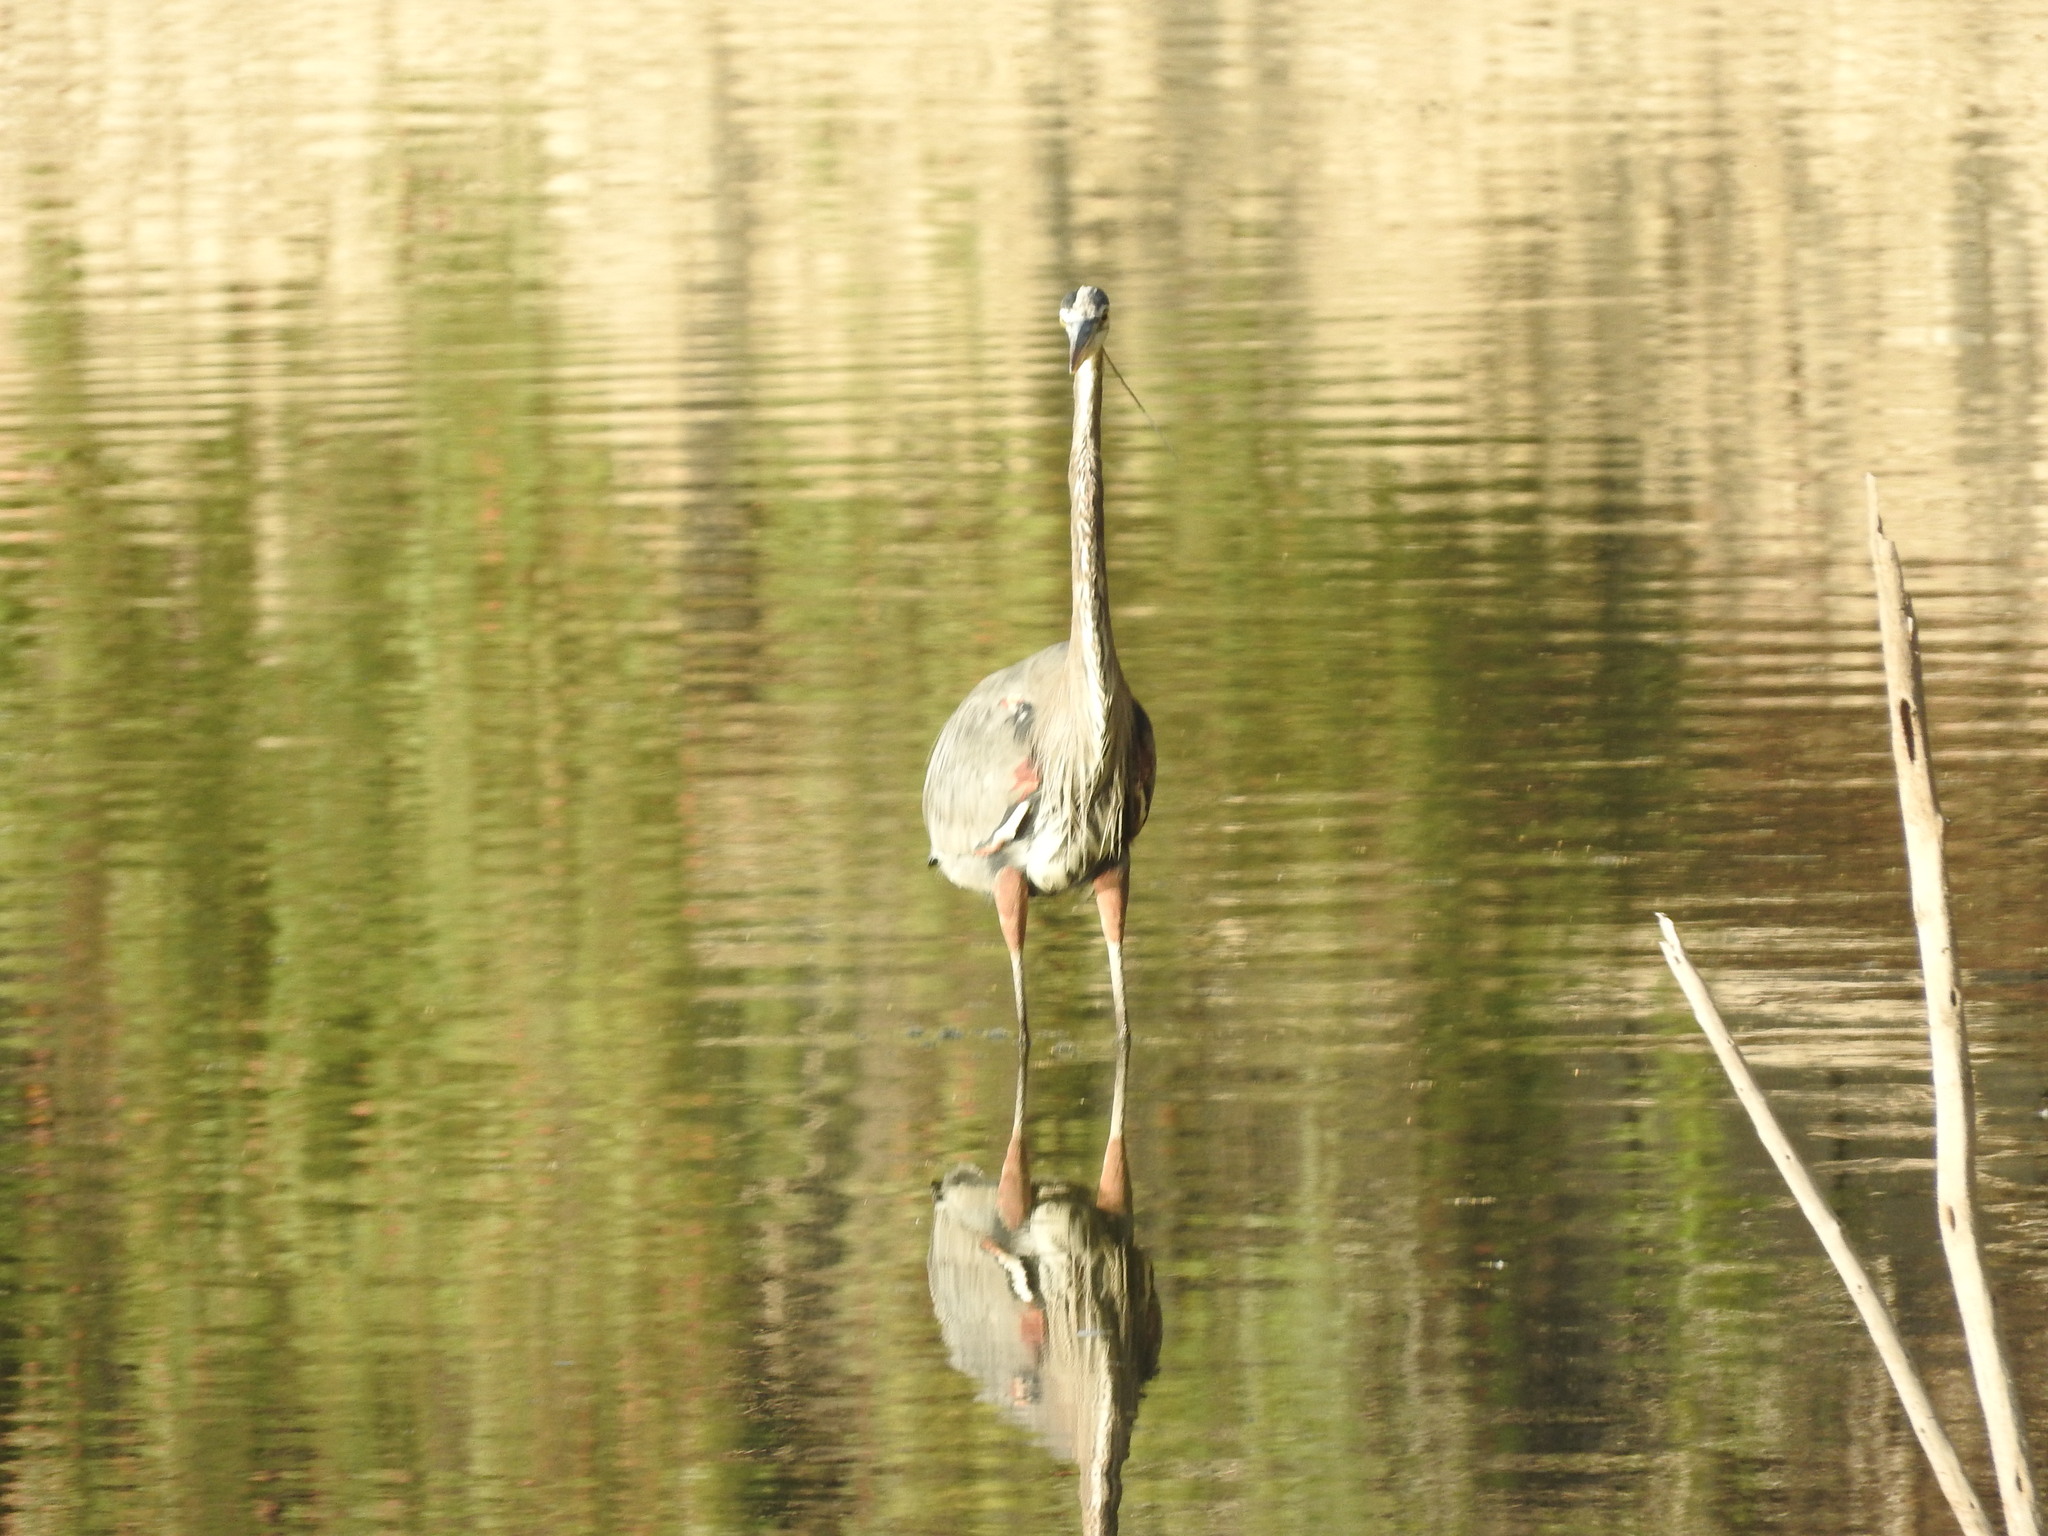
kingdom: Animalia
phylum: Chordata
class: Aves
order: Pelecaniformes
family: Ardeidae
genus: Ardea
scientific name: Ardea herodias
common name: Great blue heron
